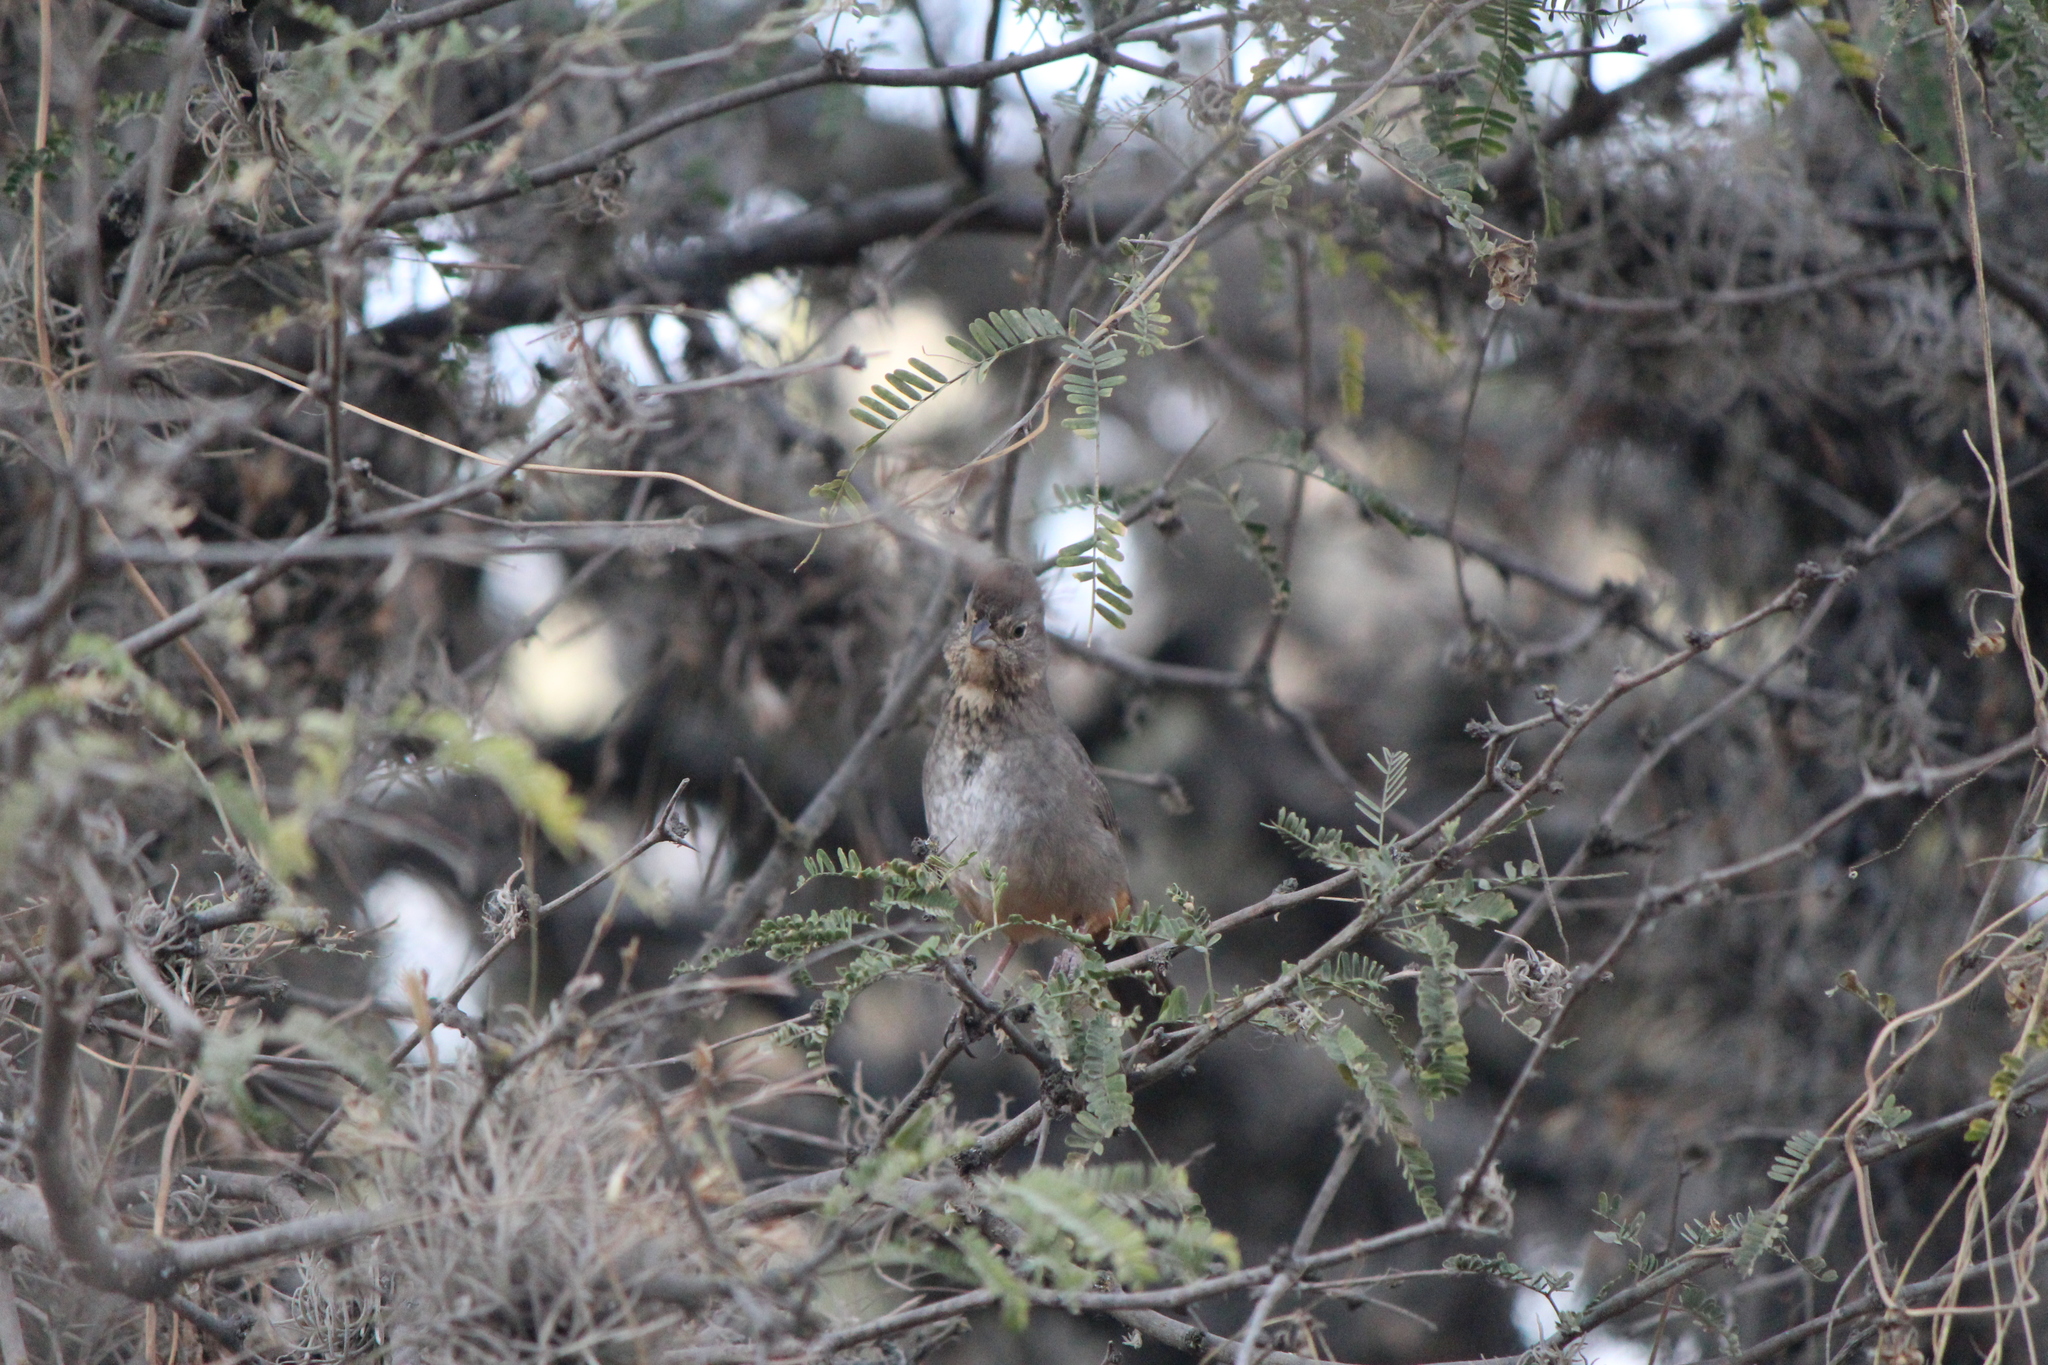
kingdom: Animalia
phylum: Chordata
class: Aves
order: Passeriformes
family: Passerellidae
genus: Melozone
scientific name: Melozone fusca
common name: Canyon towhee
